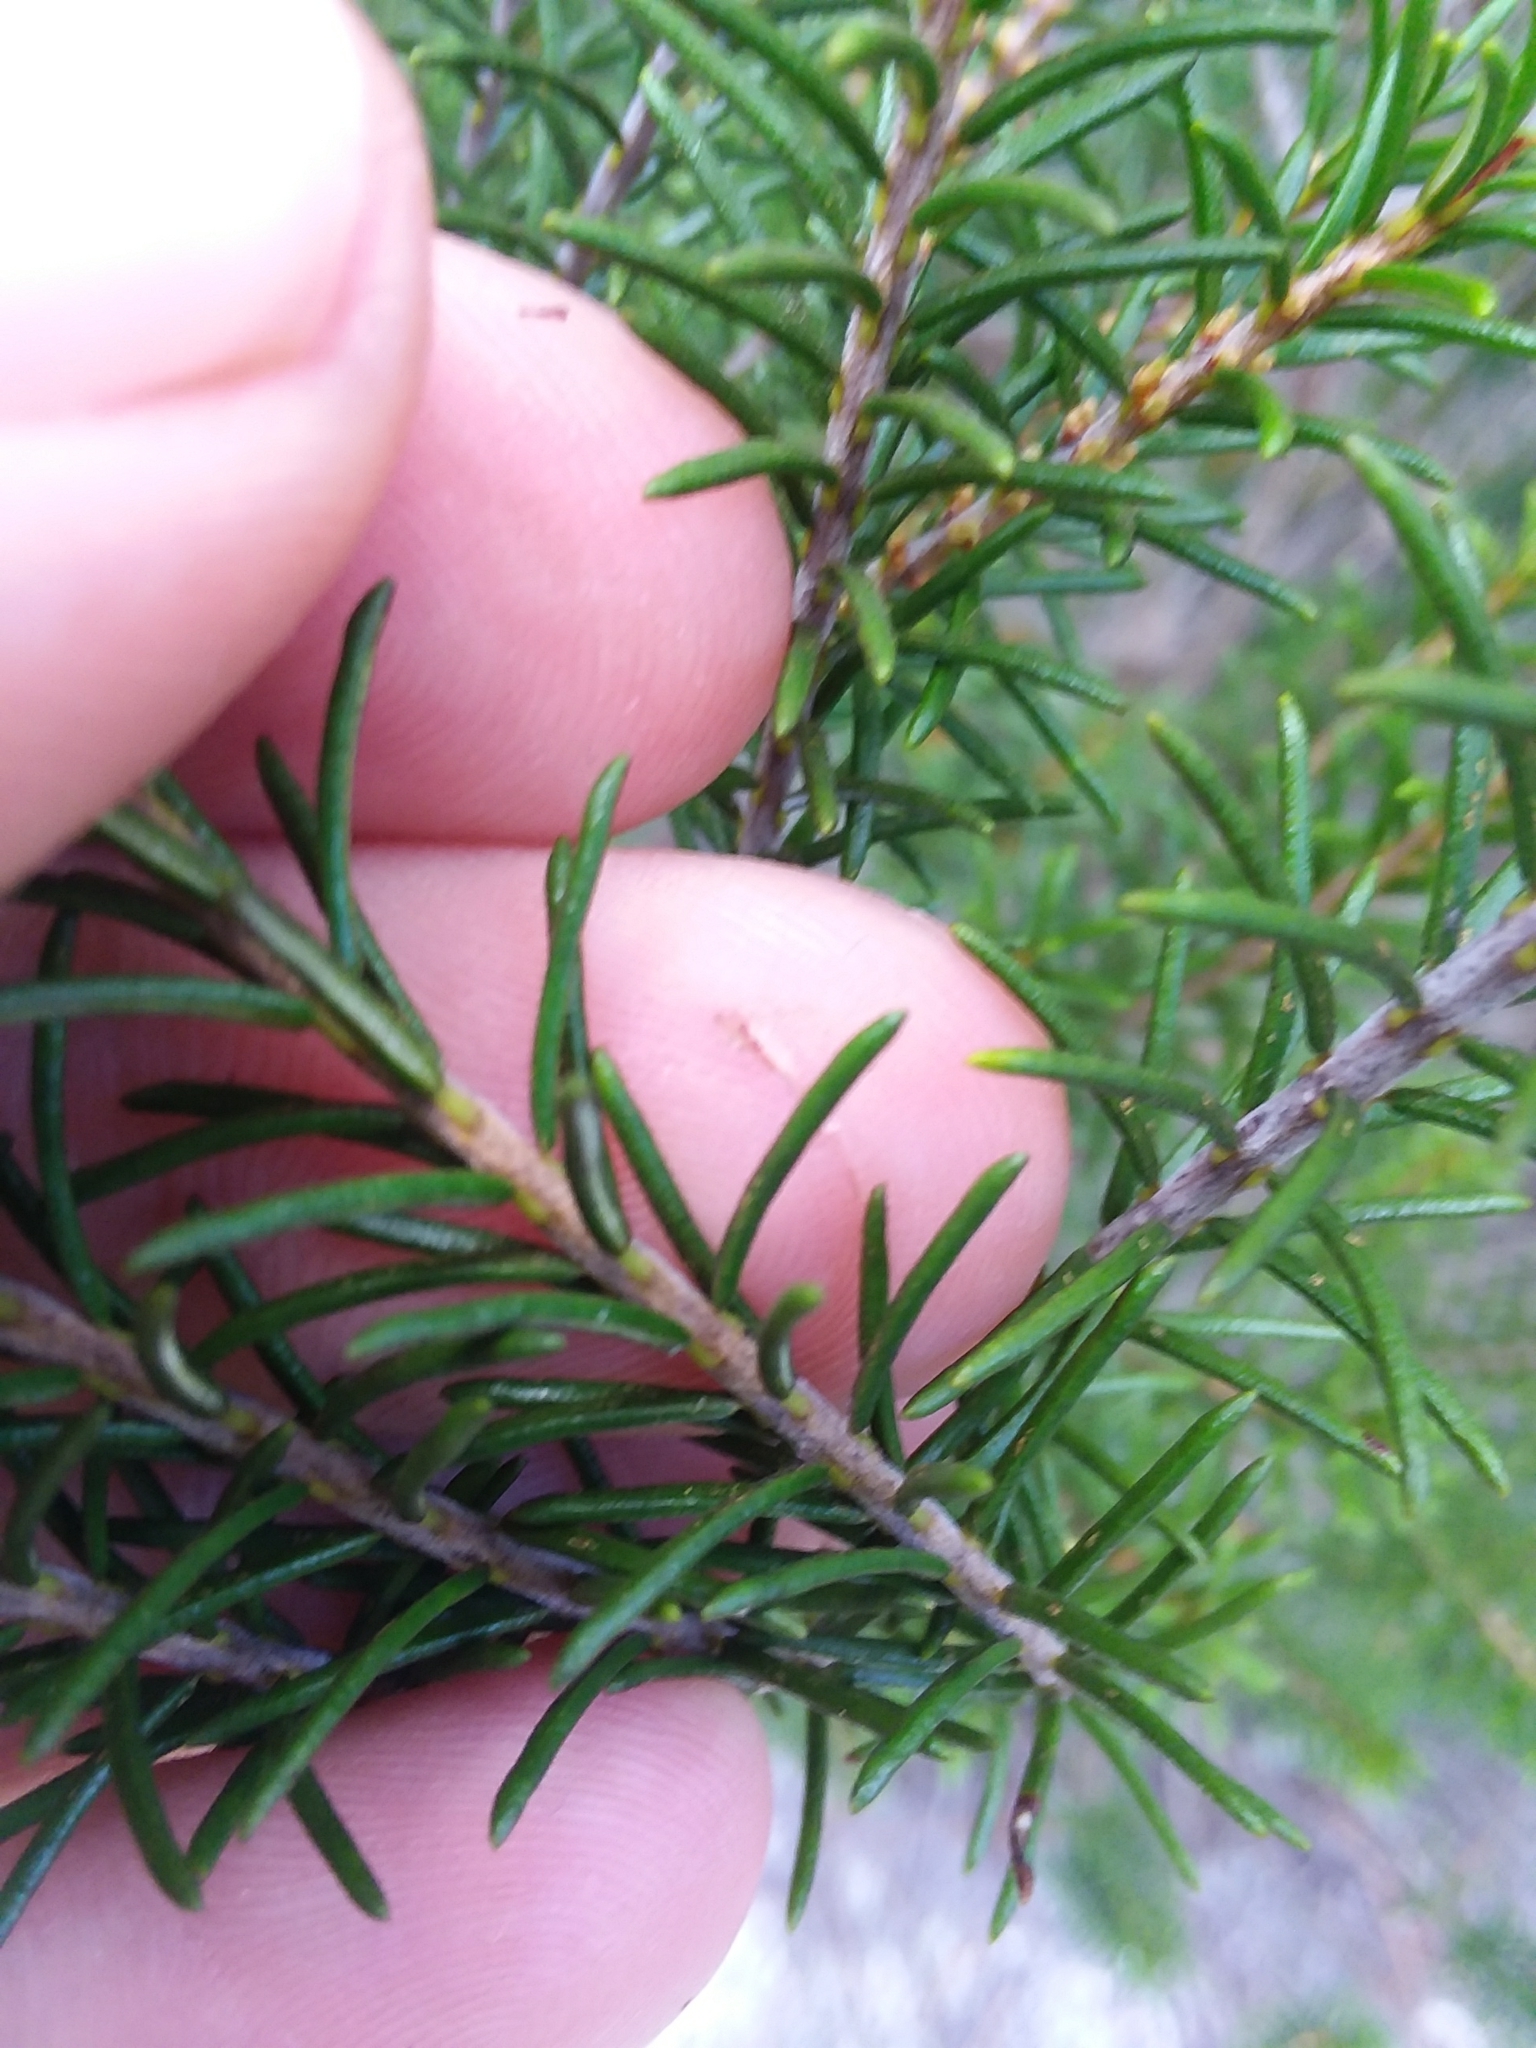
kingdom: Plantae
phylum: Tracheophyta
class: Magnoliopsida
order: Ericales
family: Ericaceae
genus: Ceratiola
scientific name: Ceratiola ericoides
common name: Sandhill-rosemary
